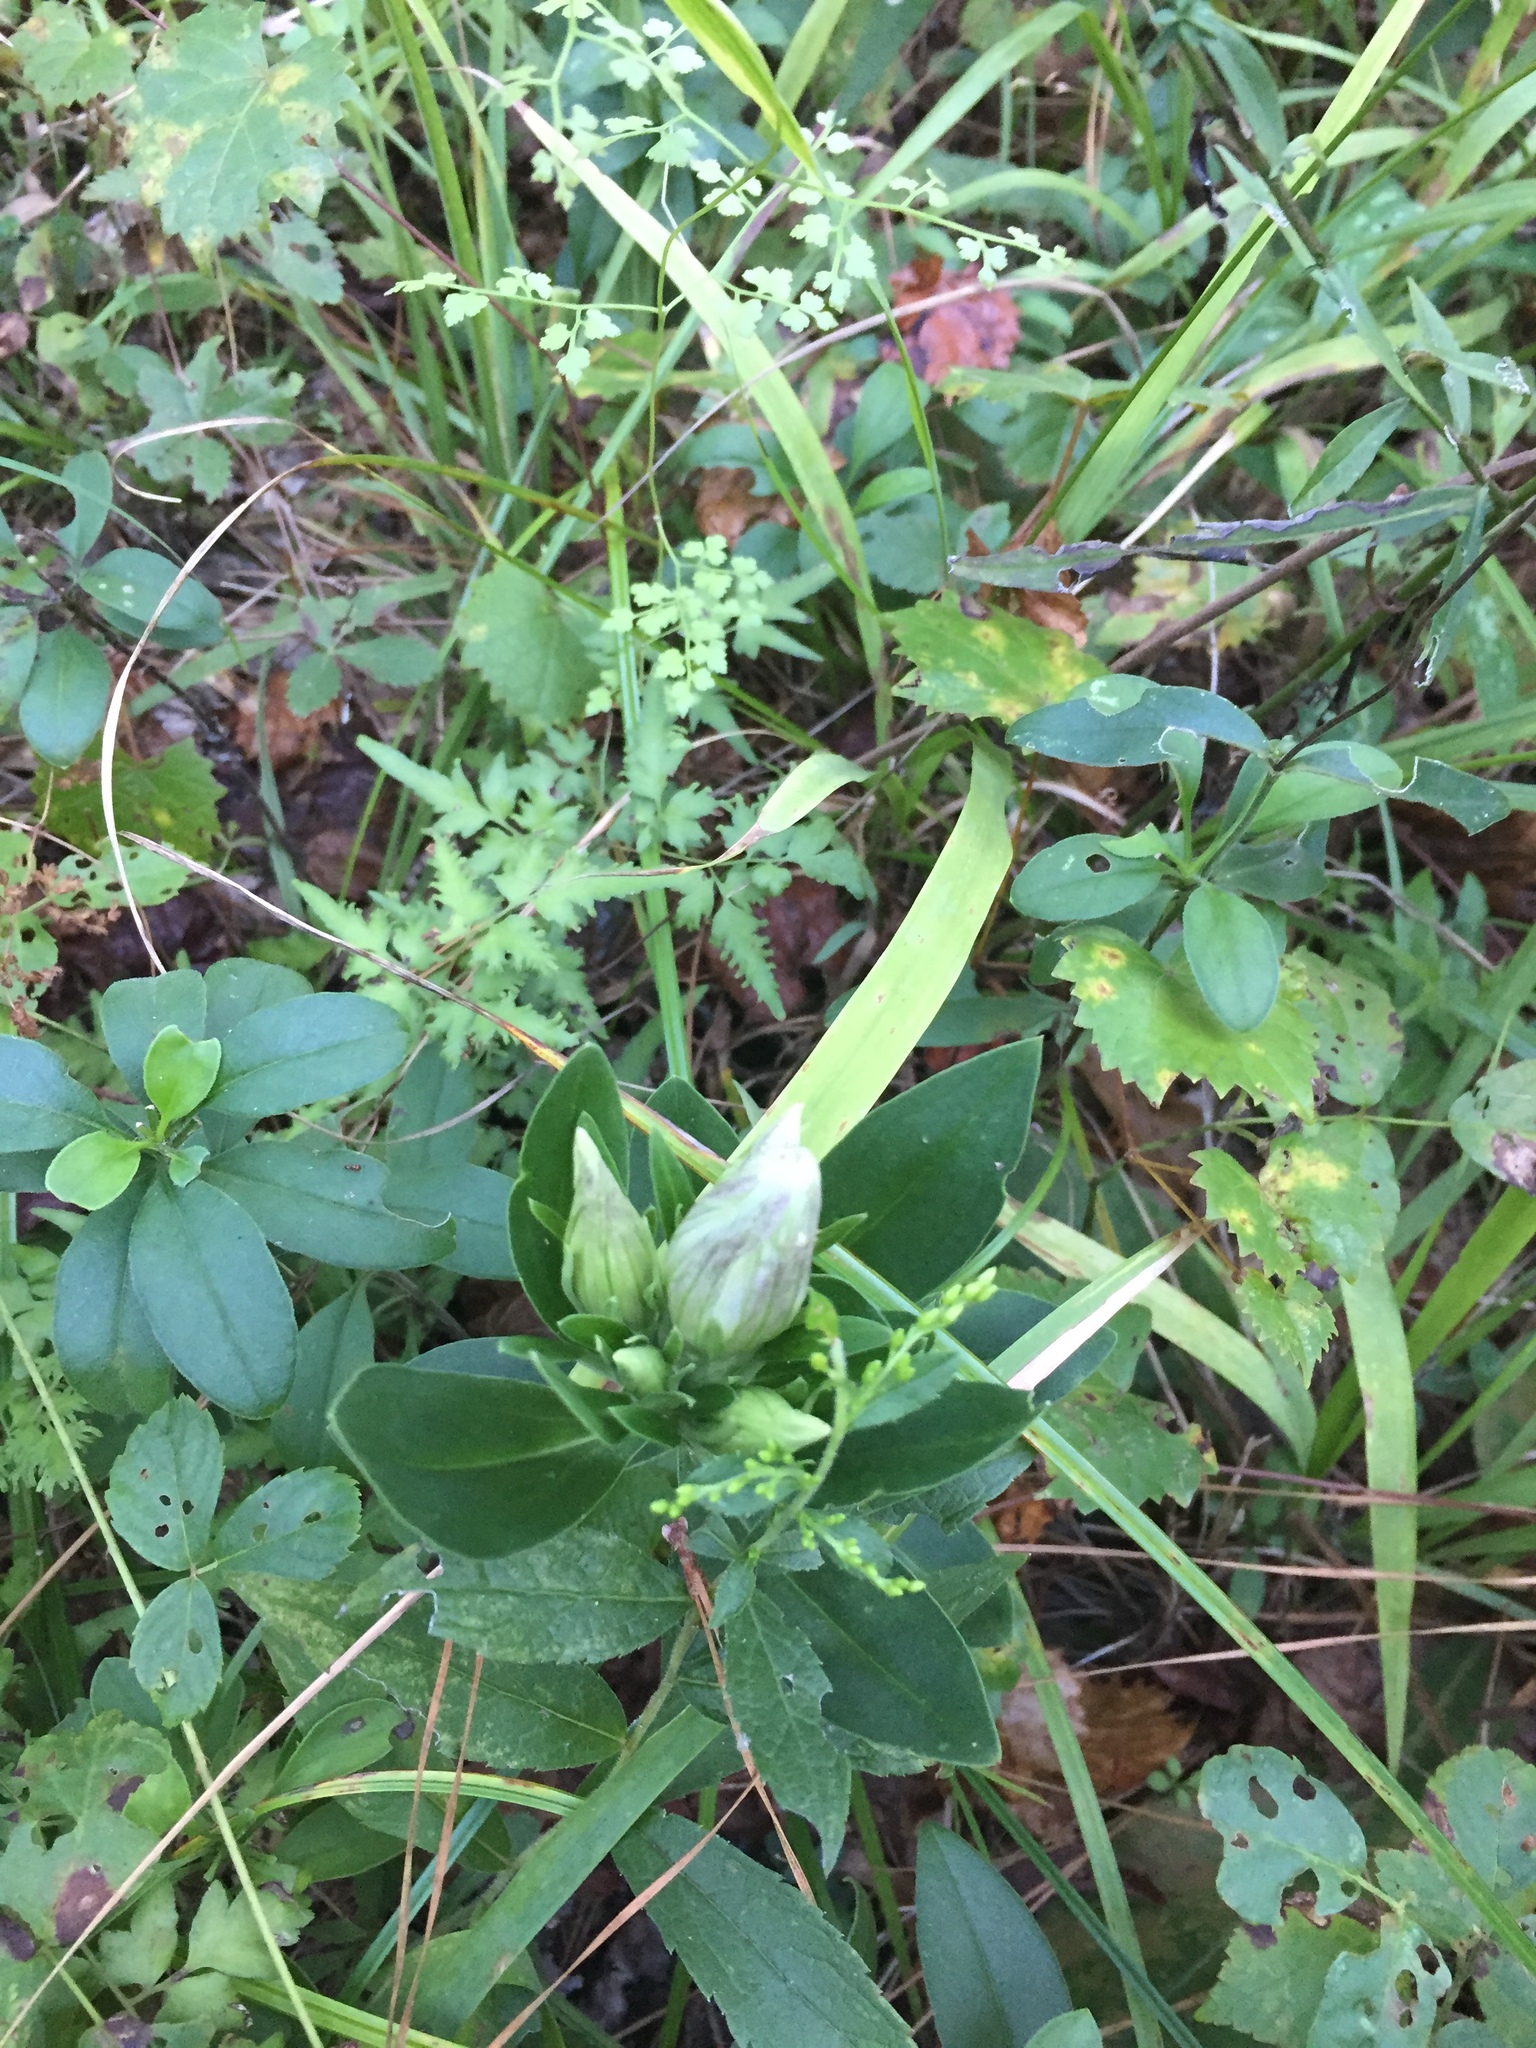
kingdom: Plantae
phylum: Tracheophyta
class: Magnoliopsida
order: Gentianales
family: Gentianaceae
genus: Gentiana
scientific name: Gentiana villosa
